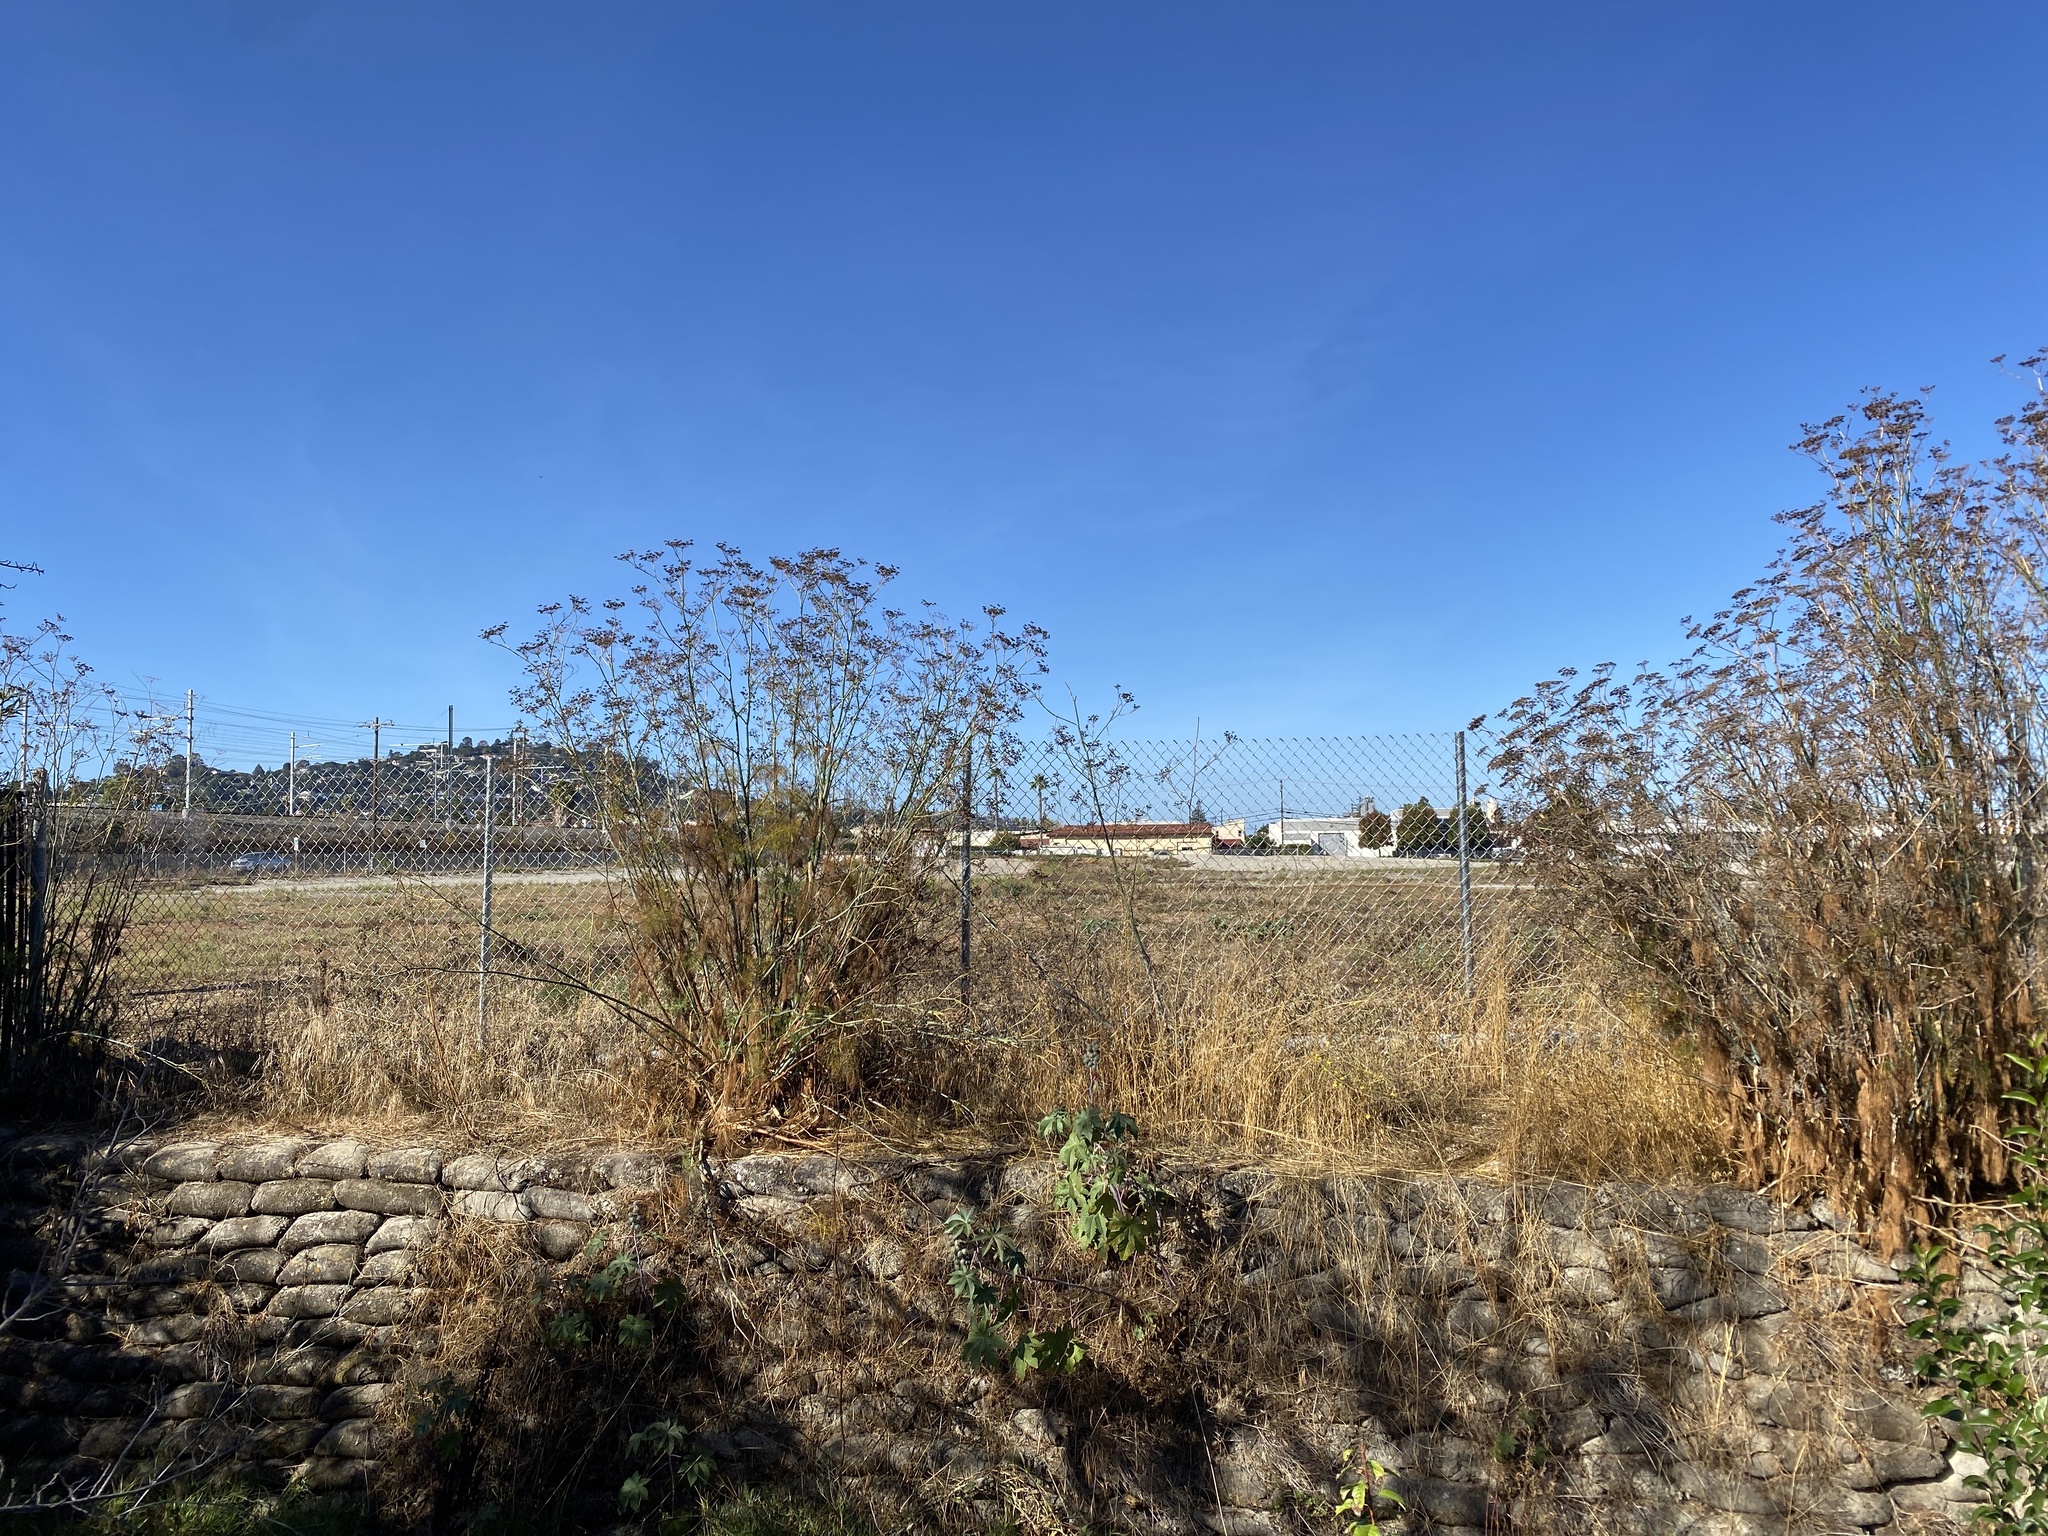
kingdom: Plantae
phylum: Tracheophyta
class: Magnoliopsida
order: Apiales
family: Apiaceae
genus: Foeniculum
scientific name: Foeniculum vulgare
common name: Fennel
